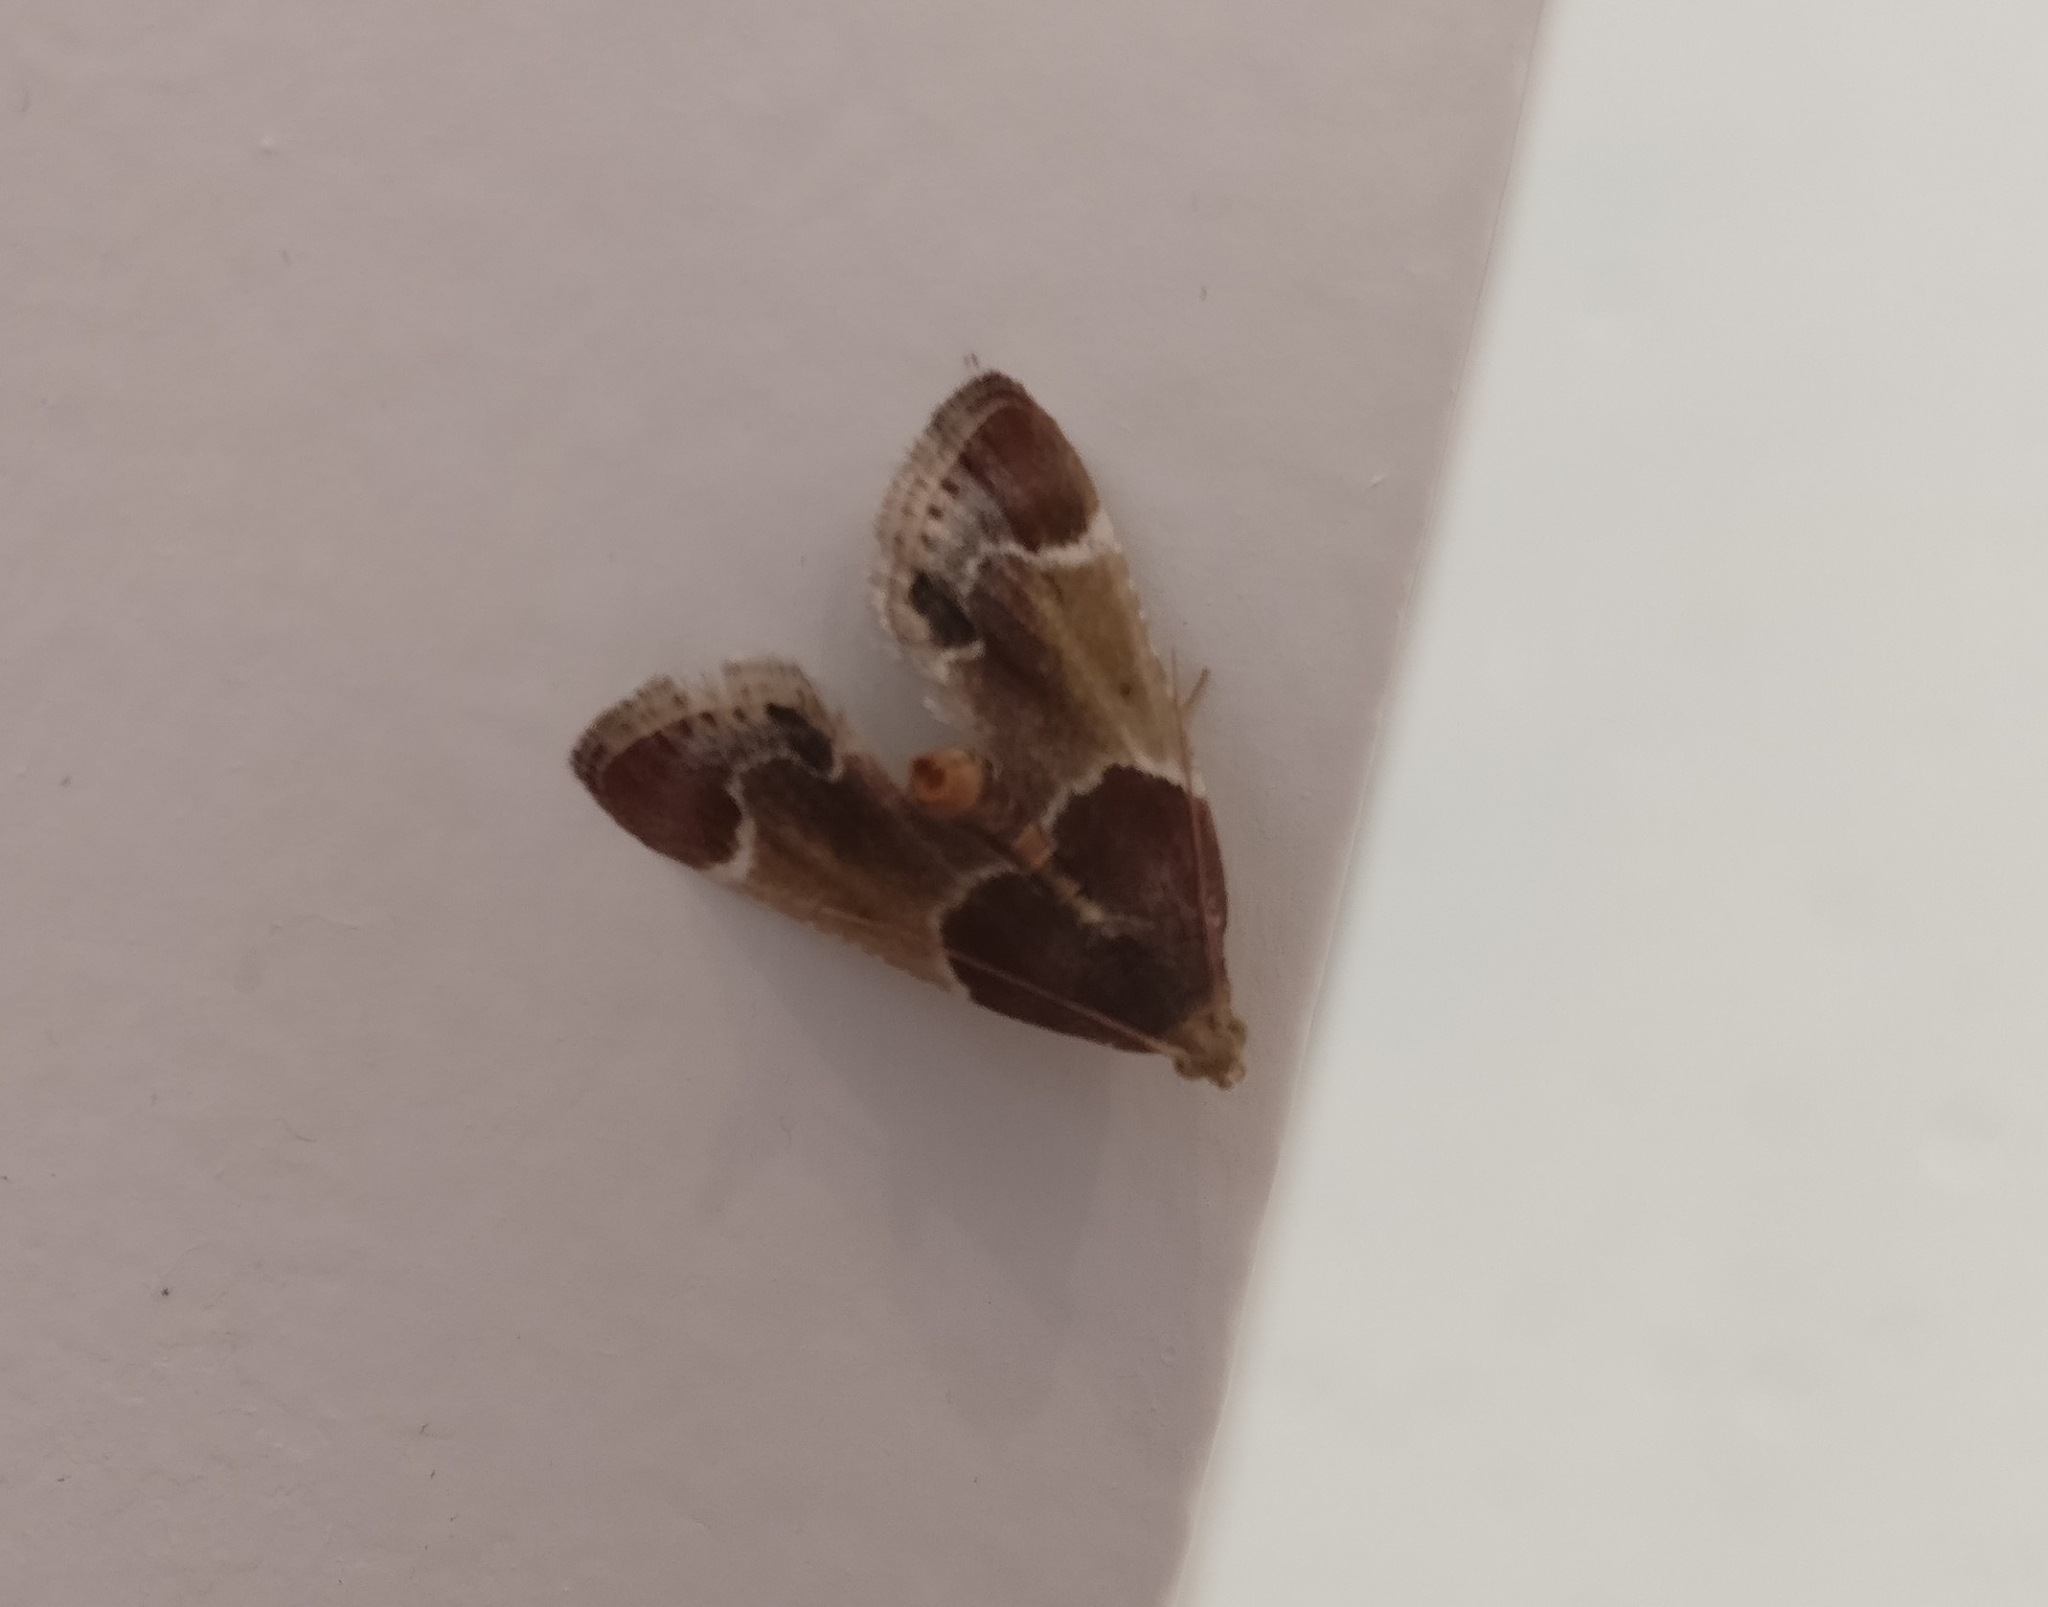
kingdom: Animalia
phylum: Arthropoda
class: Insecta
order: Lepidoptera
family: Pyralidae
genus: Pyralis
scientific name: Pyralis farinalis
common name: Meal moth
